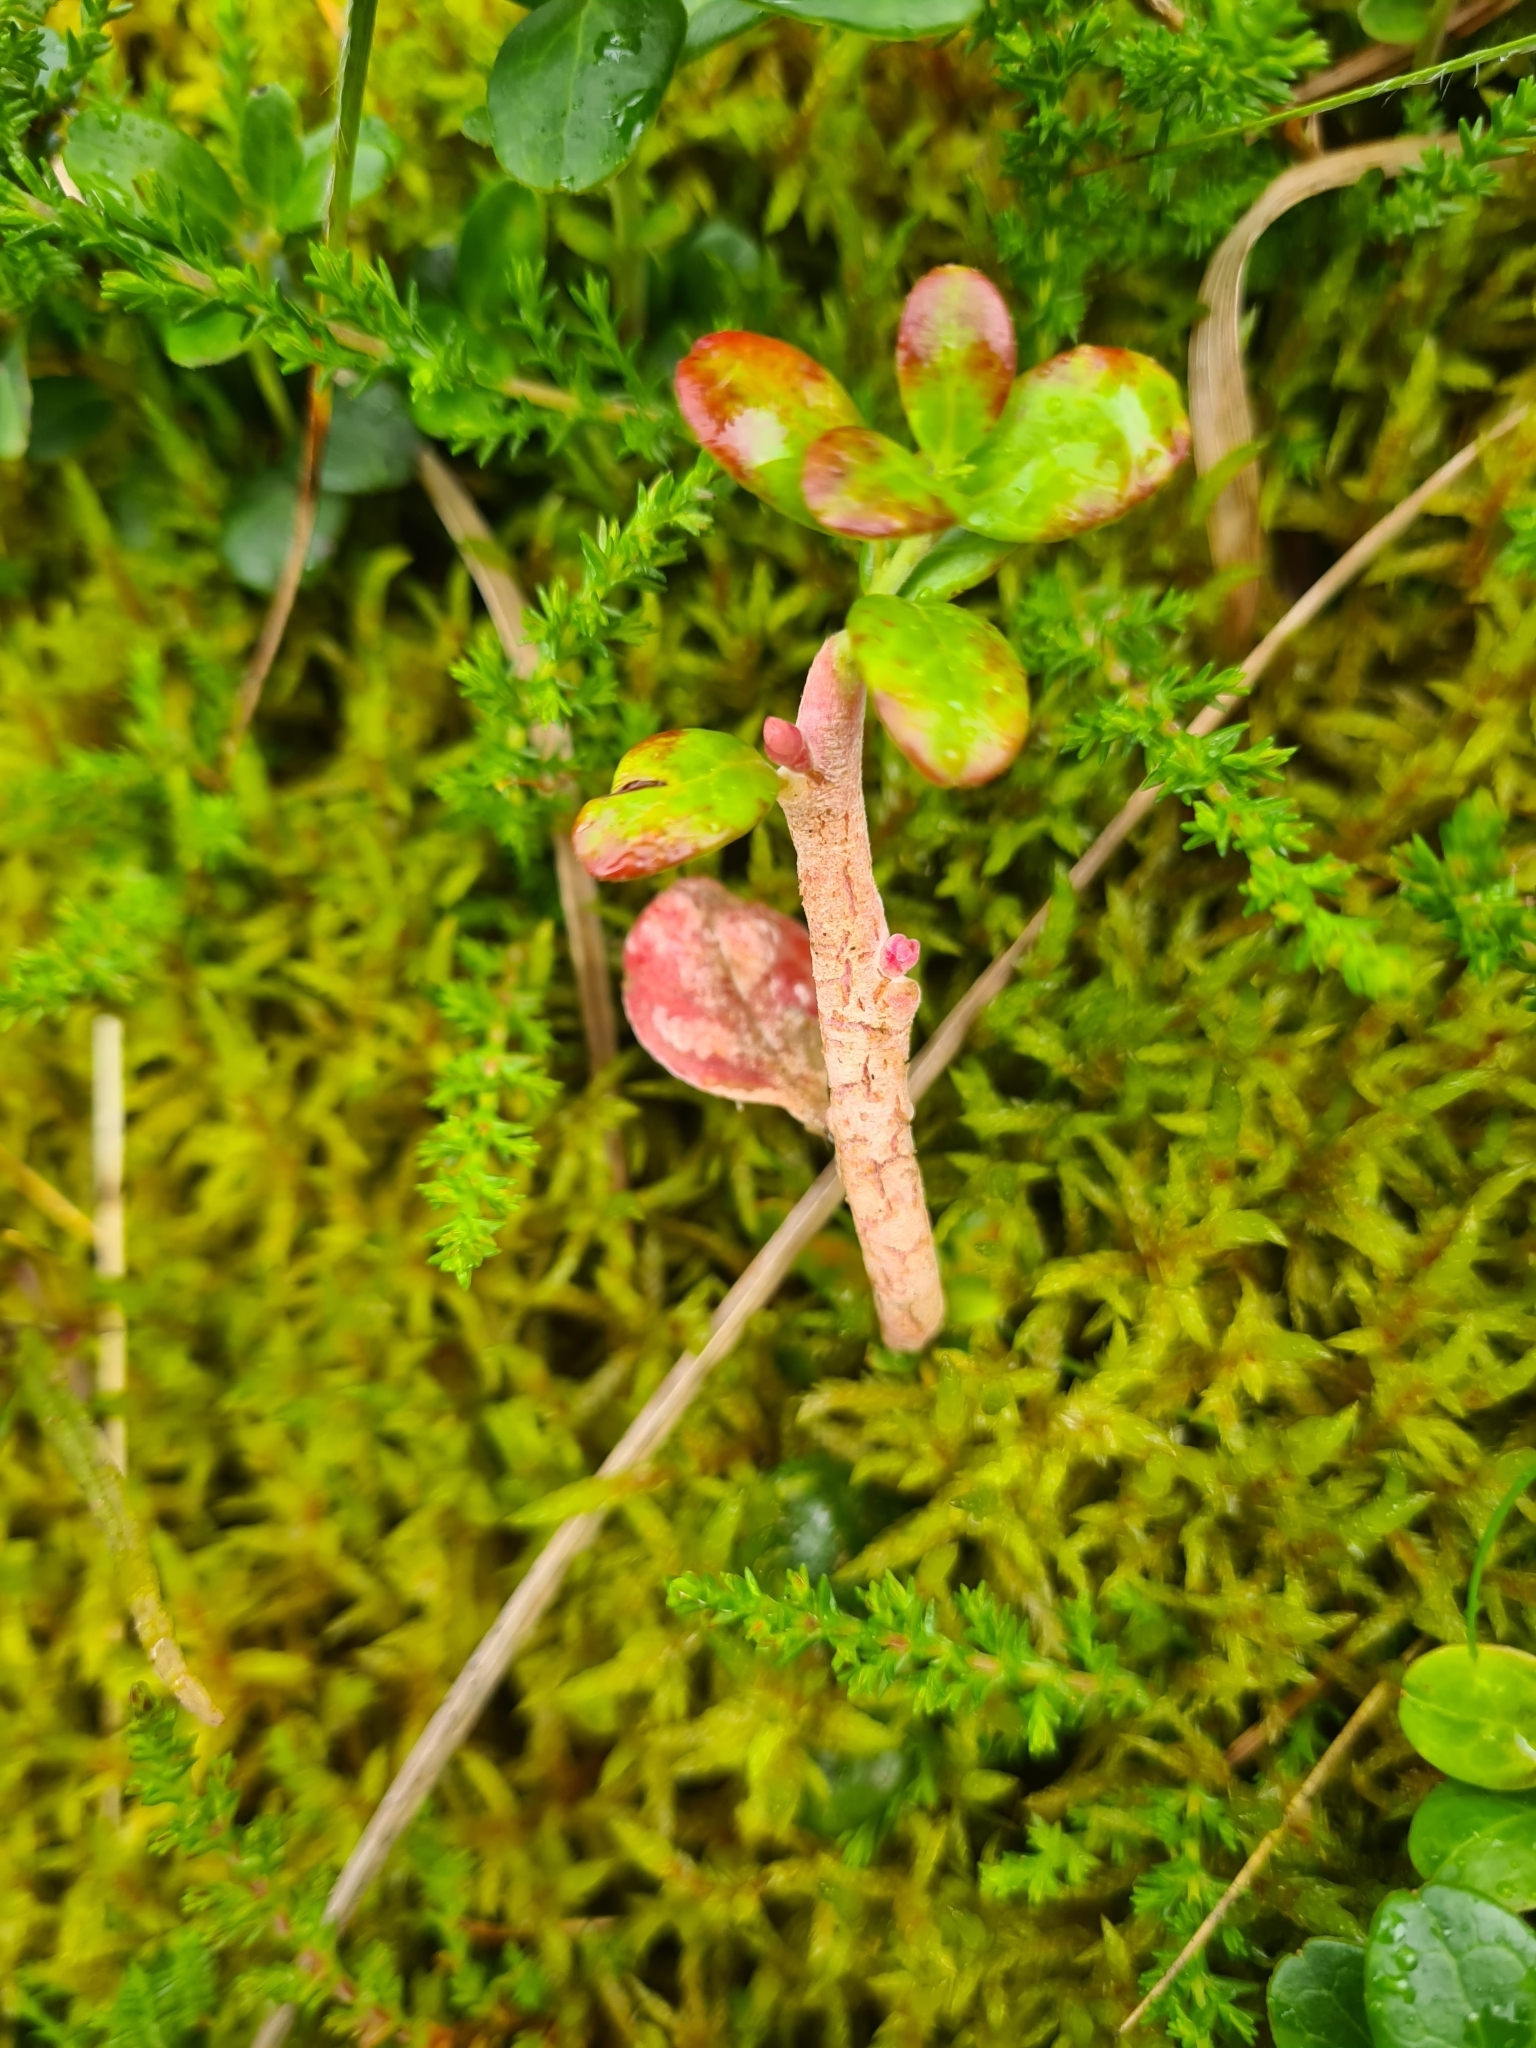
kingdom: Fungi
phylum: Basidiomycota
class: Exobasidiomycetes
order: Exobasidiales
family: Exobasidiaceae
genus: Exobasidium
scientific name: Exobasidium vaccinii
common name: Cowberry redleaf
